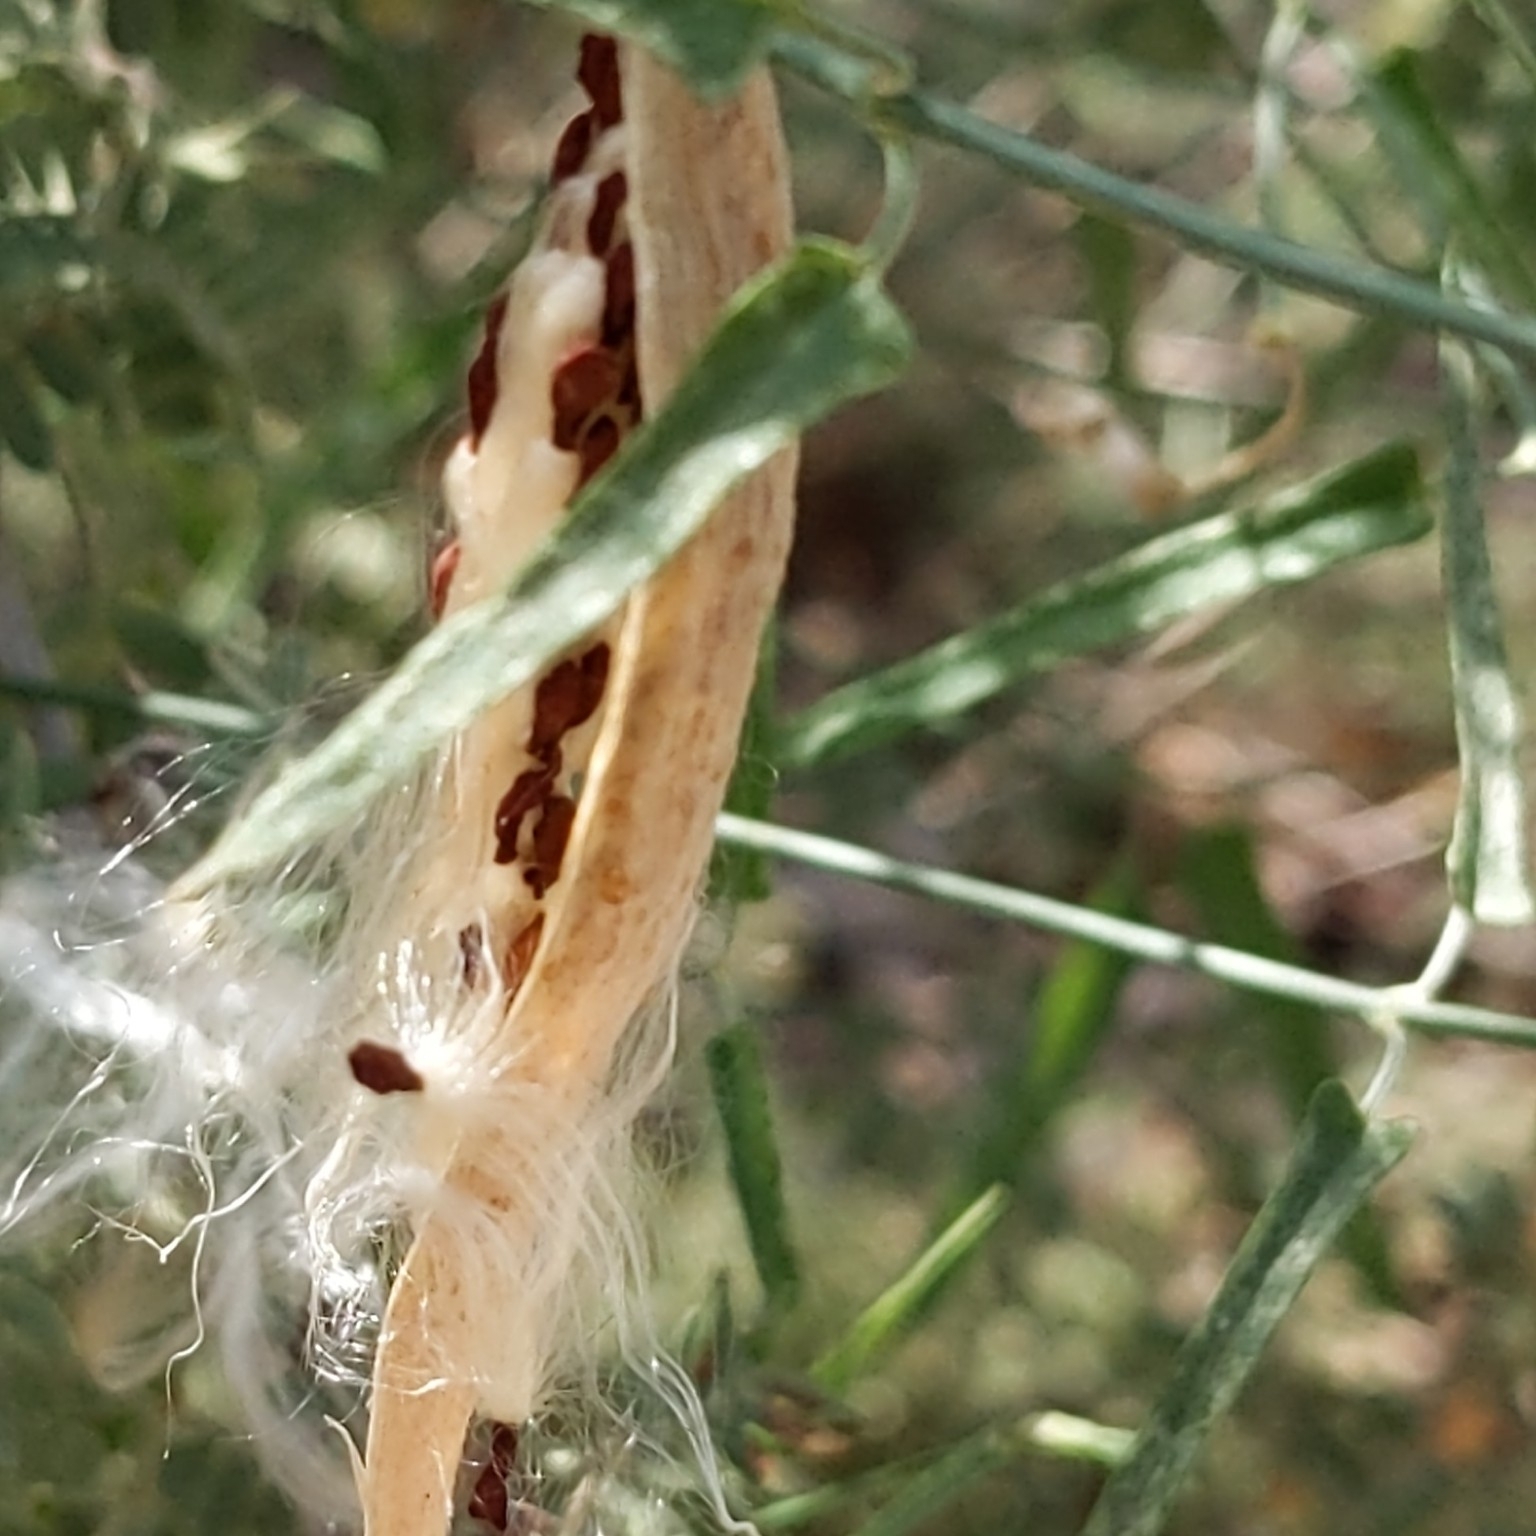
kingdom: Plantae
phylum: Tracheophyta
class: Magnoliopsida
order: Gentianales
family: Apocynaceae
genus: Funastrum
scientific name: Funastrum heterophyllum
